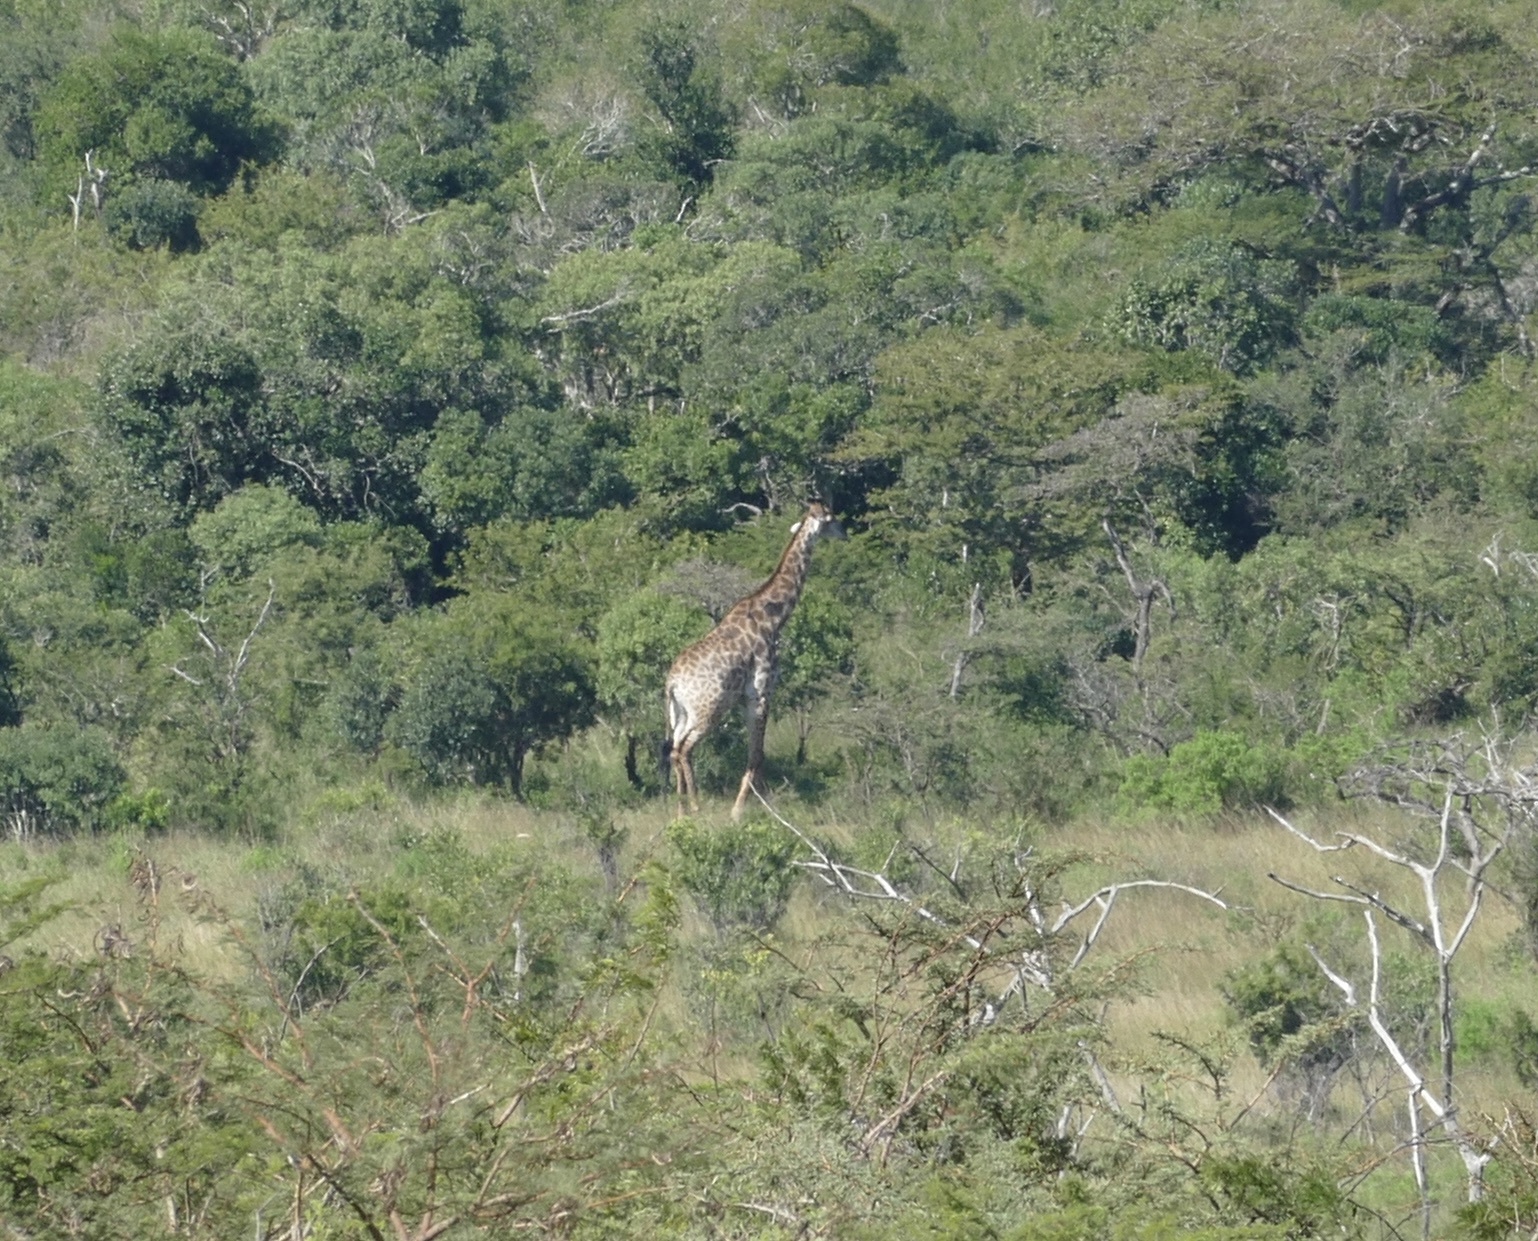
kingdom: Animalia
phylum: Chordata
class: Mammalia
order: Artiodactyla
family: Giraffidae
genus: Giraffa
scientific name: Giraffa giraffa
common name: Southern giraffe
